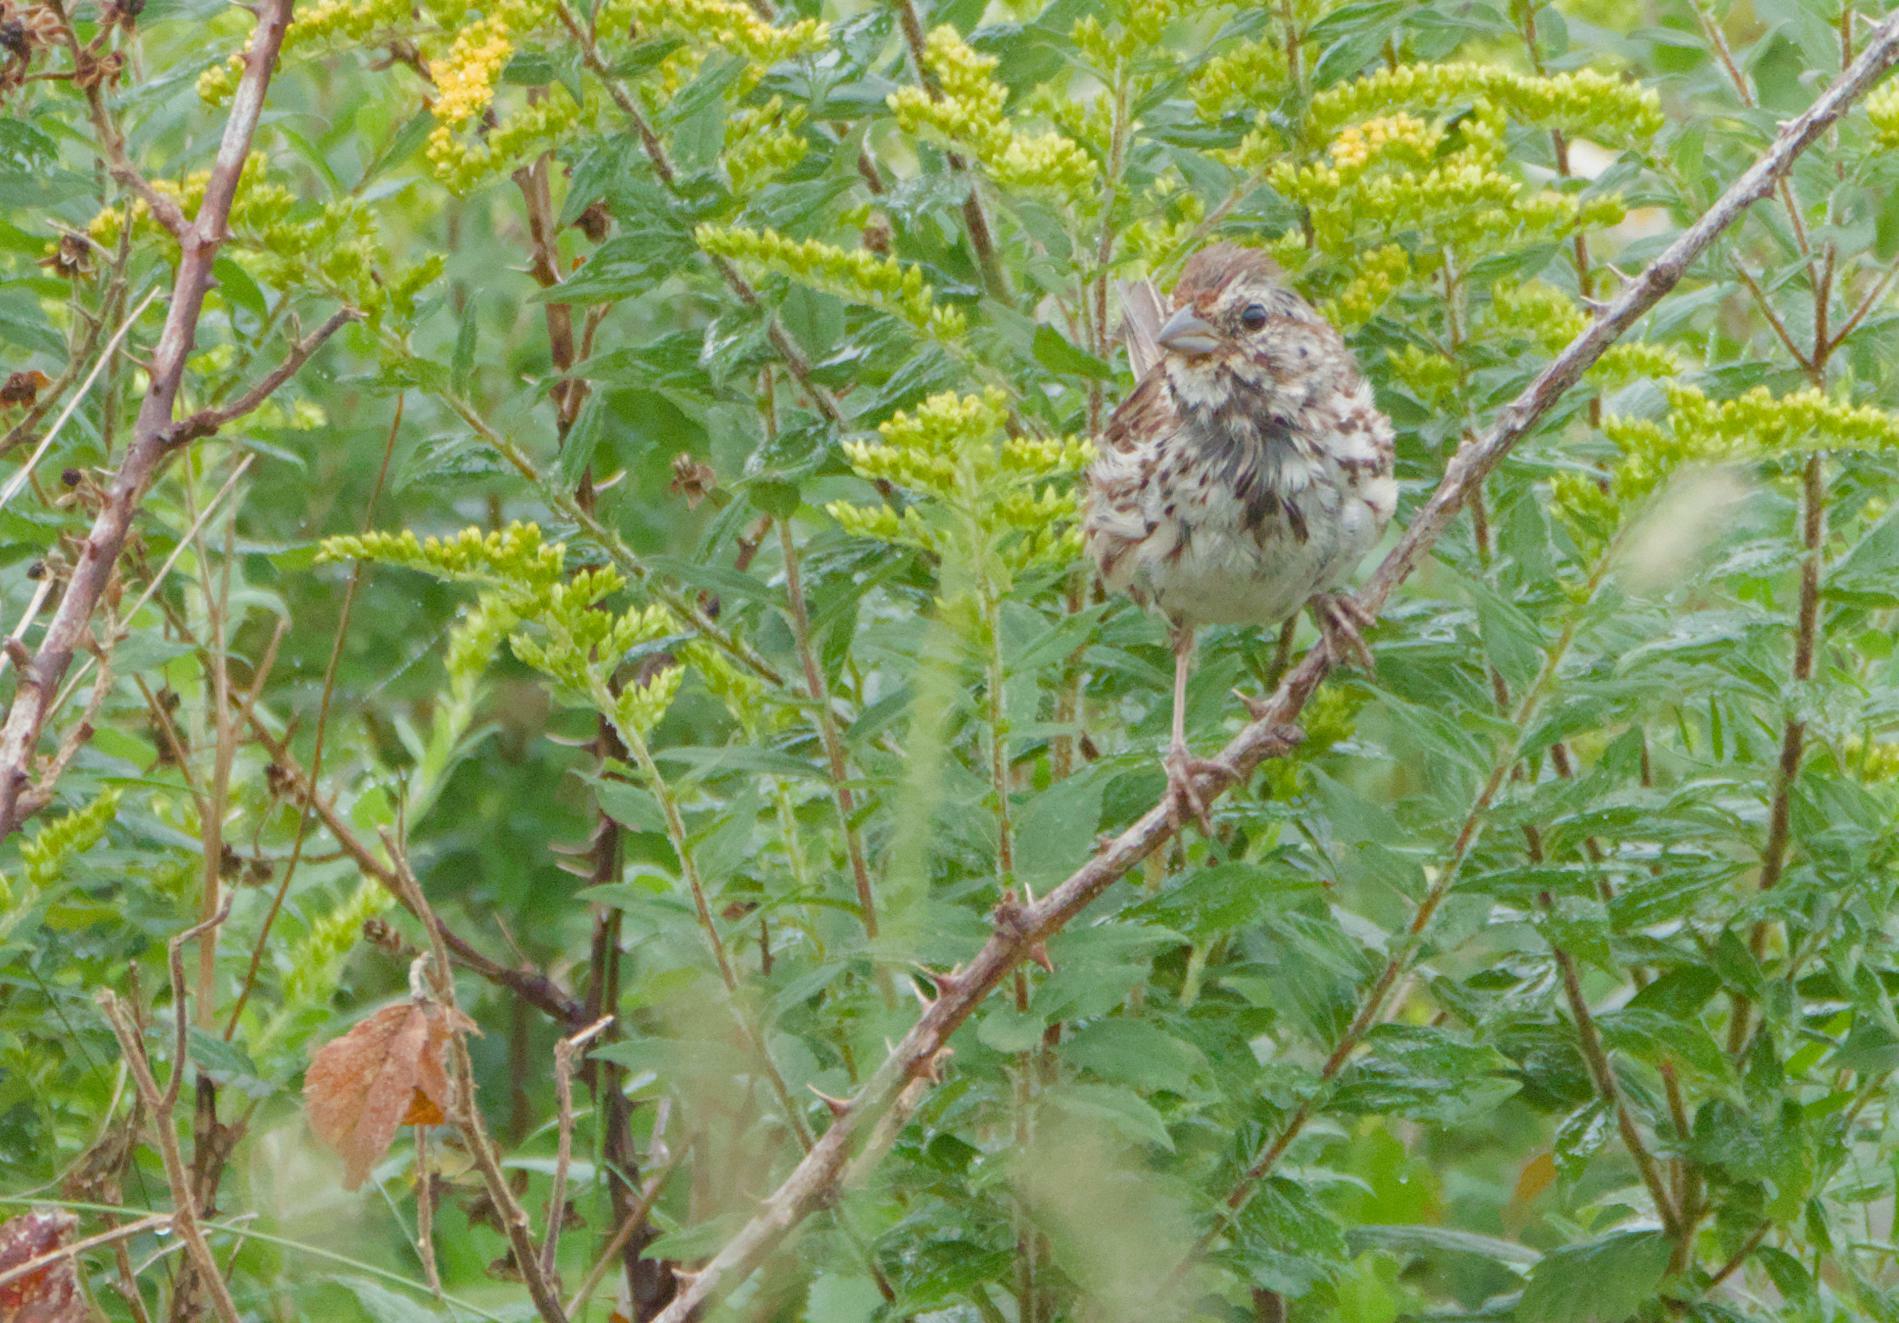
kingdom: Animalia
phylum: Chordata
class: Aves
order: Passeriformes
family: Passerellidae
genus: Melospiza
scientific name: Melospiza melodia
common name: Song sparrow
